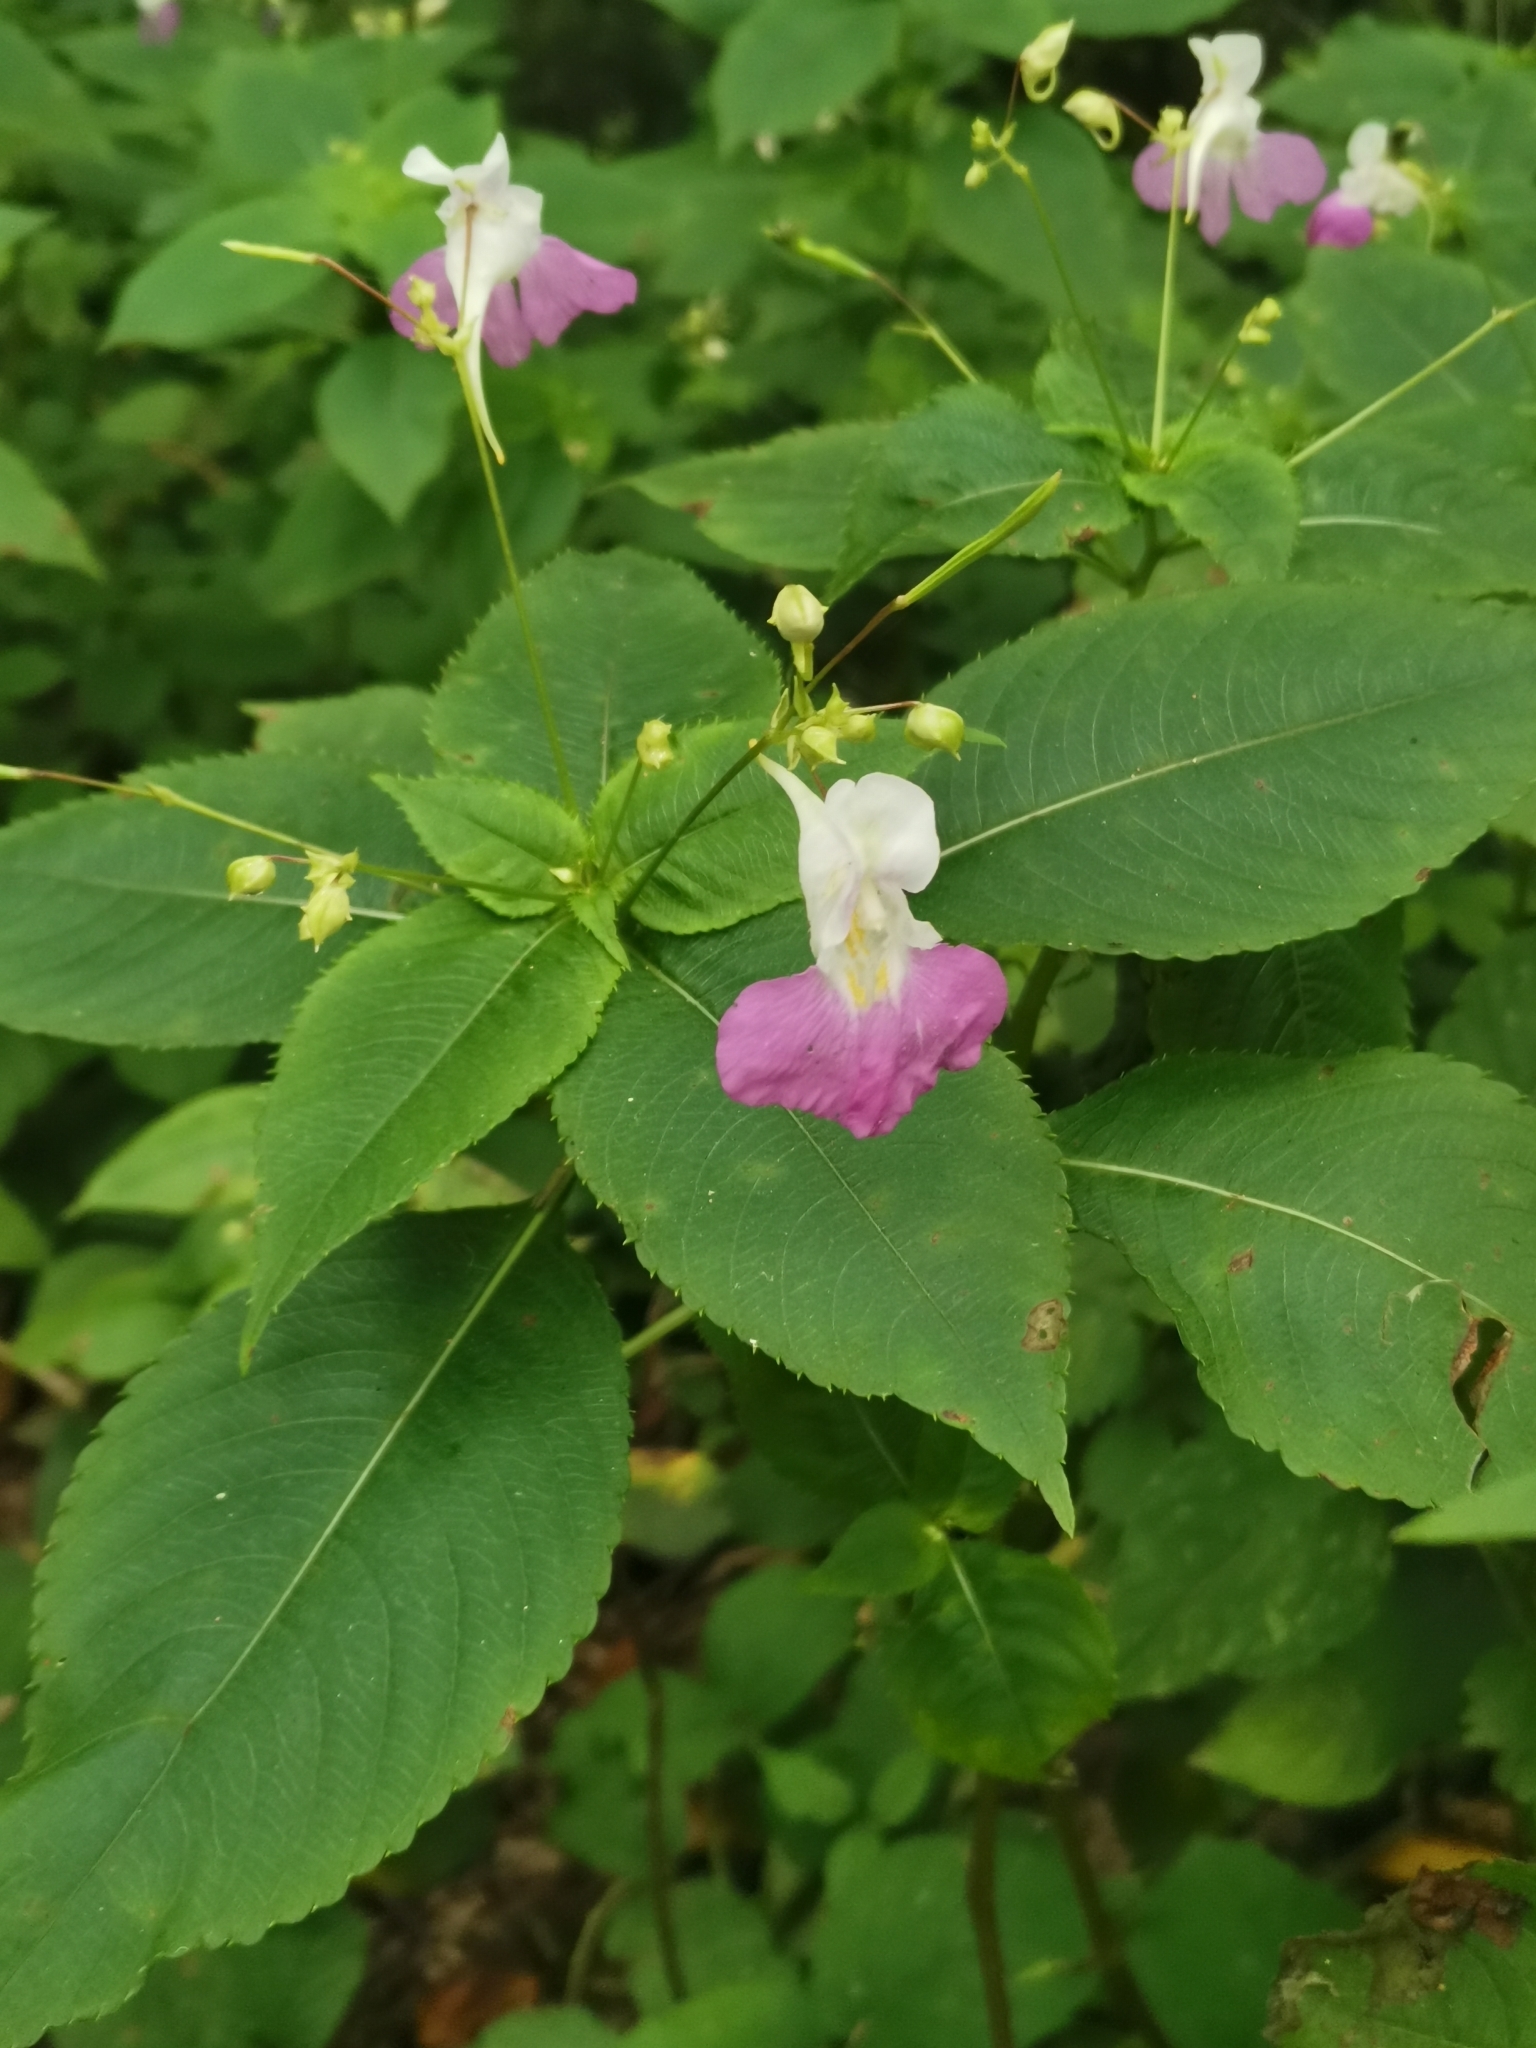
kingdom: Plantae
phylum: Tracheophyta
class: Magnoliopsida
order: Ericales
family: Balsaminaceae
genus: Impatiens
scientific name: Impatiens balfourii
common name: Balfour's touch-me-not
